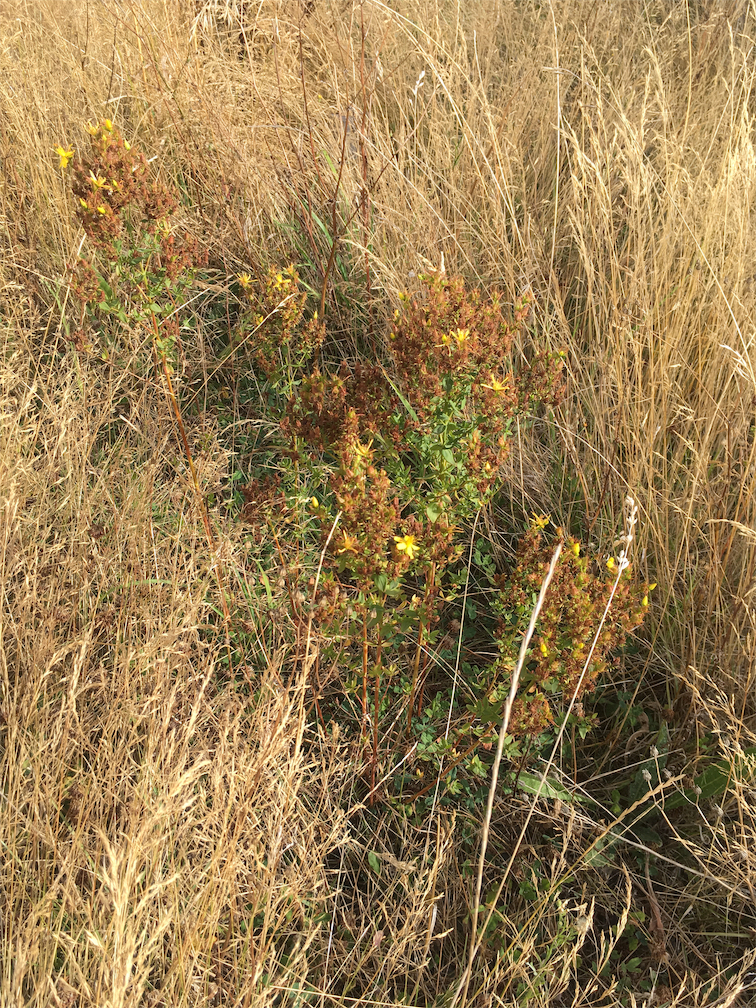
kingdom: Plantae
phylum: Tracheophyta
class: Magnoliopsida
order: Malpighiales
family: Hypericaceae
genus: Hypericum
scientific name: Hypericum perforatum
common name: Common st. johnswort
